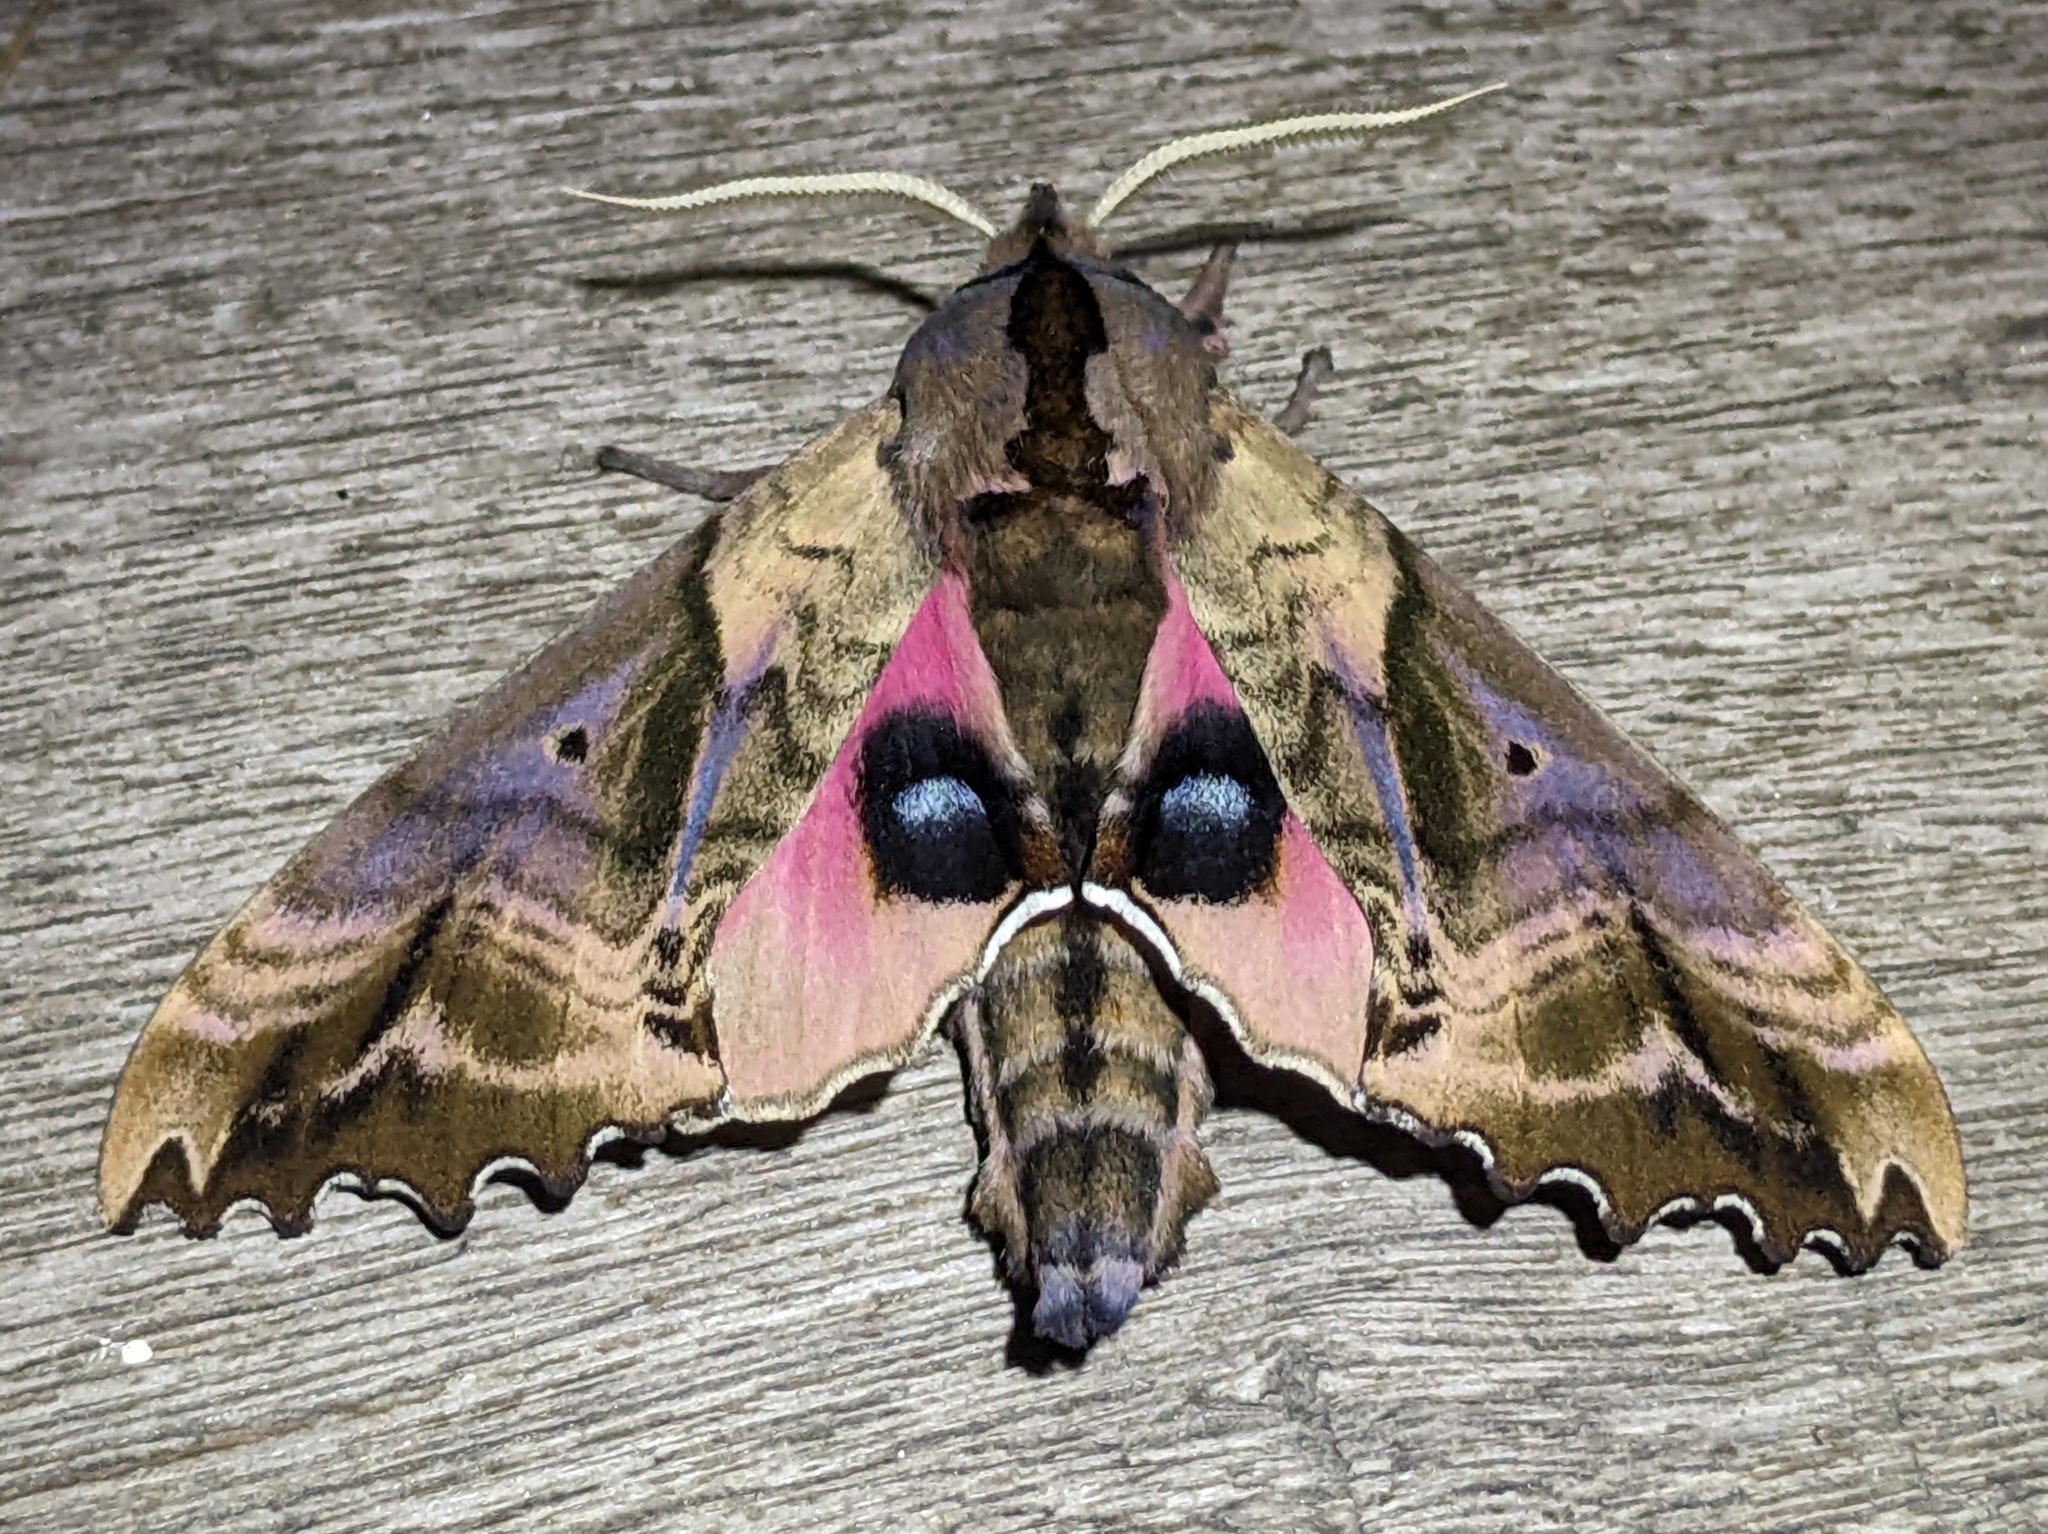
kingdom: Animalia
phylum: Arthropoda
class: Insecta
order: Lepidoptera
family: Sphingidae
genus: Paonias
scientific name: Paonias excaecata
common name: Blind-eyed sphinx
